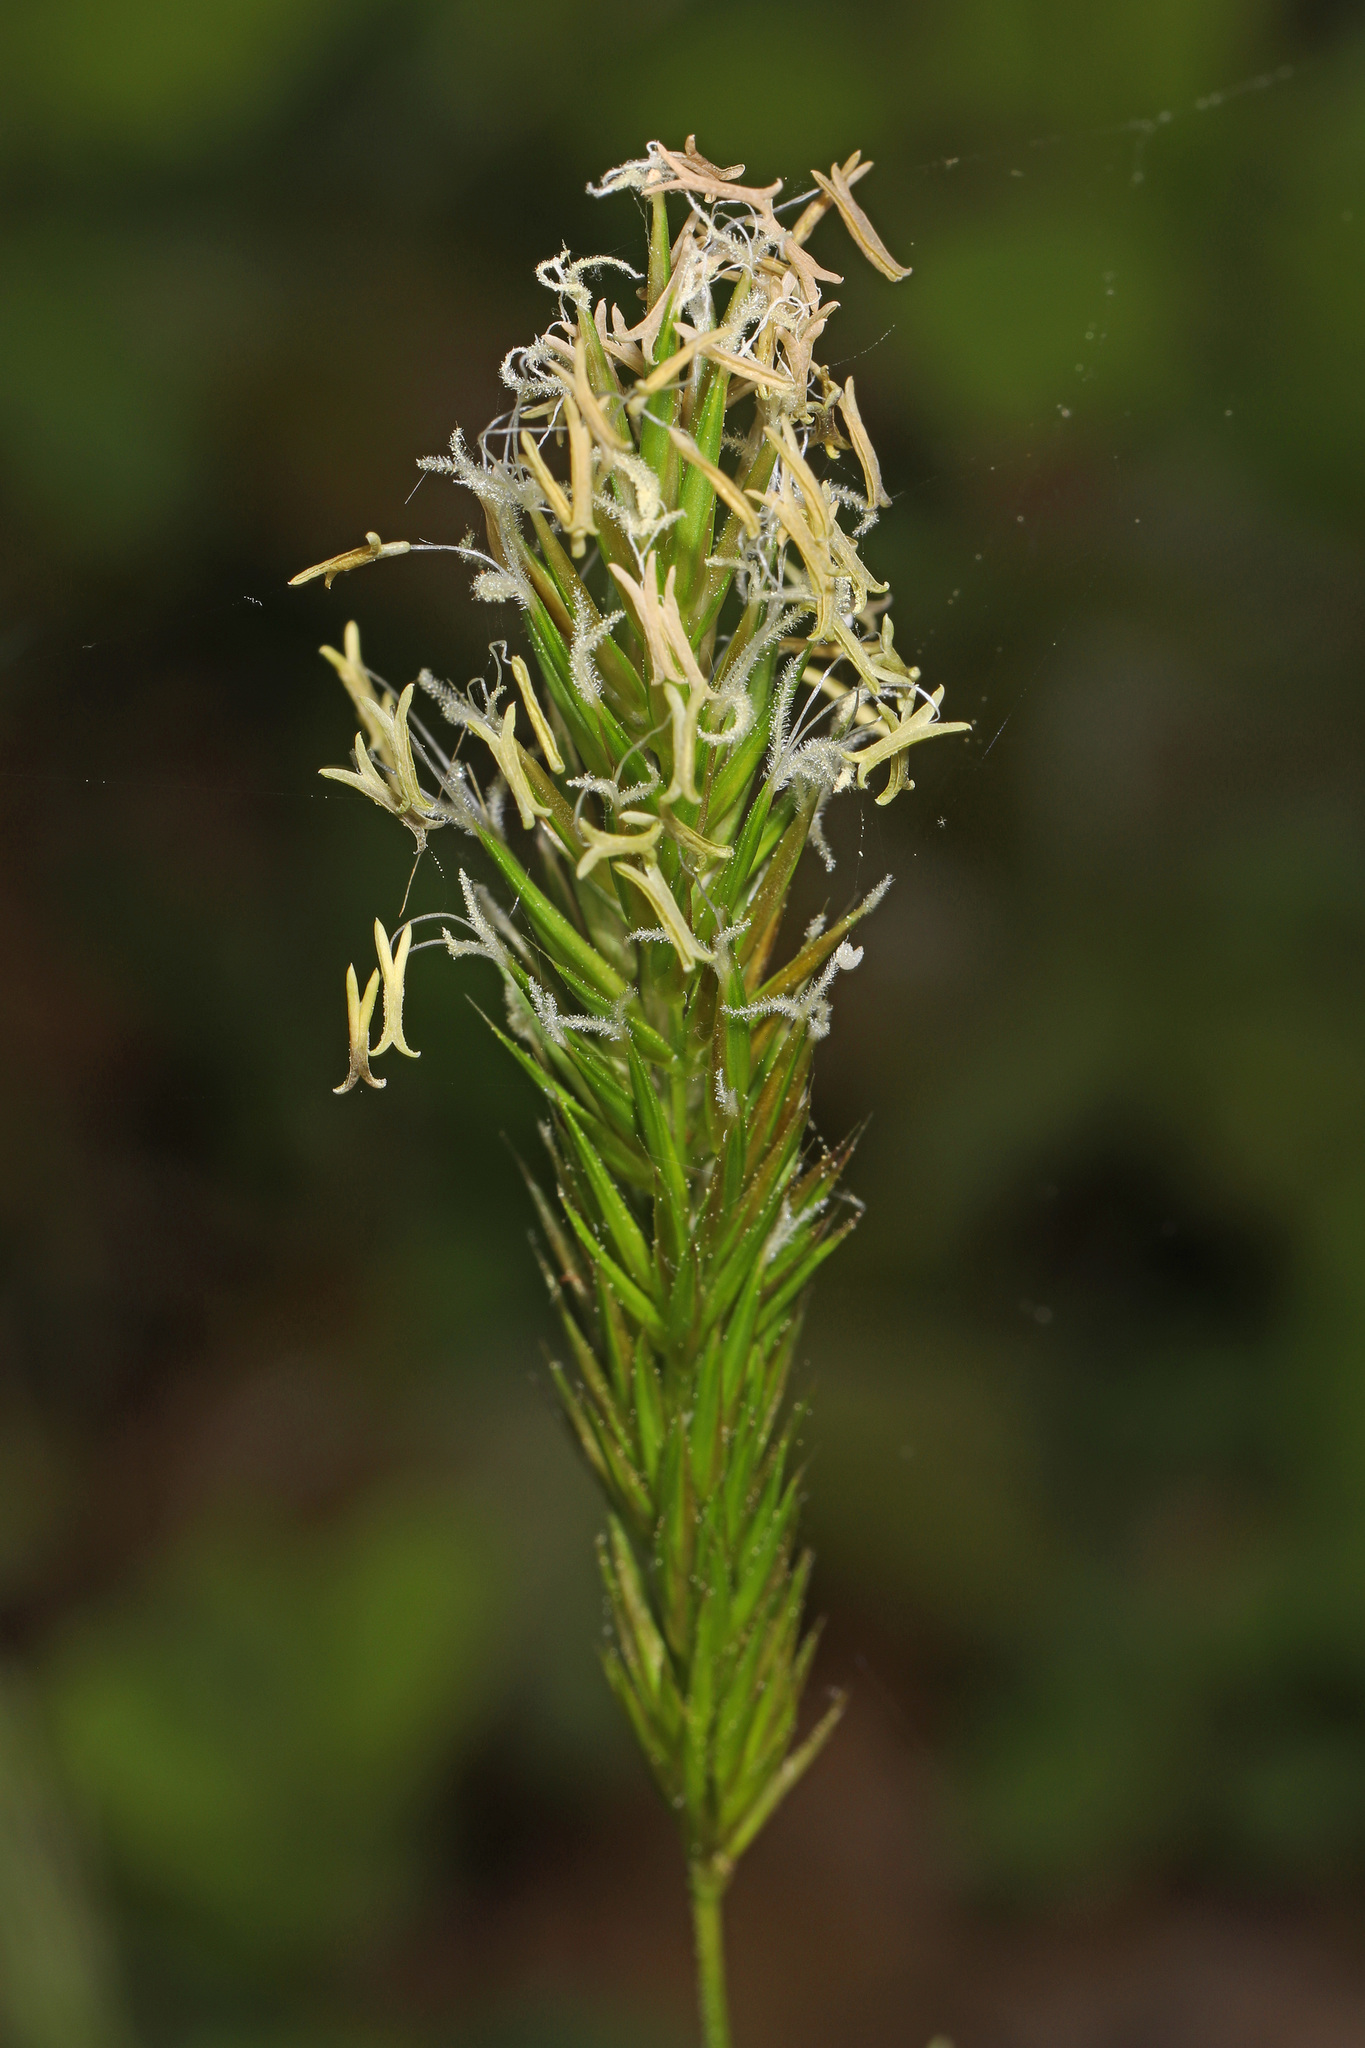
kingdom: Plantae
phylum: Tracheophyta
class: Liliopsida
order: Poales
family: Poaceae
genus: Anthoxanthum
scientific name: Anthoxanthum odoratum
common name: Sweet vernalgrass
